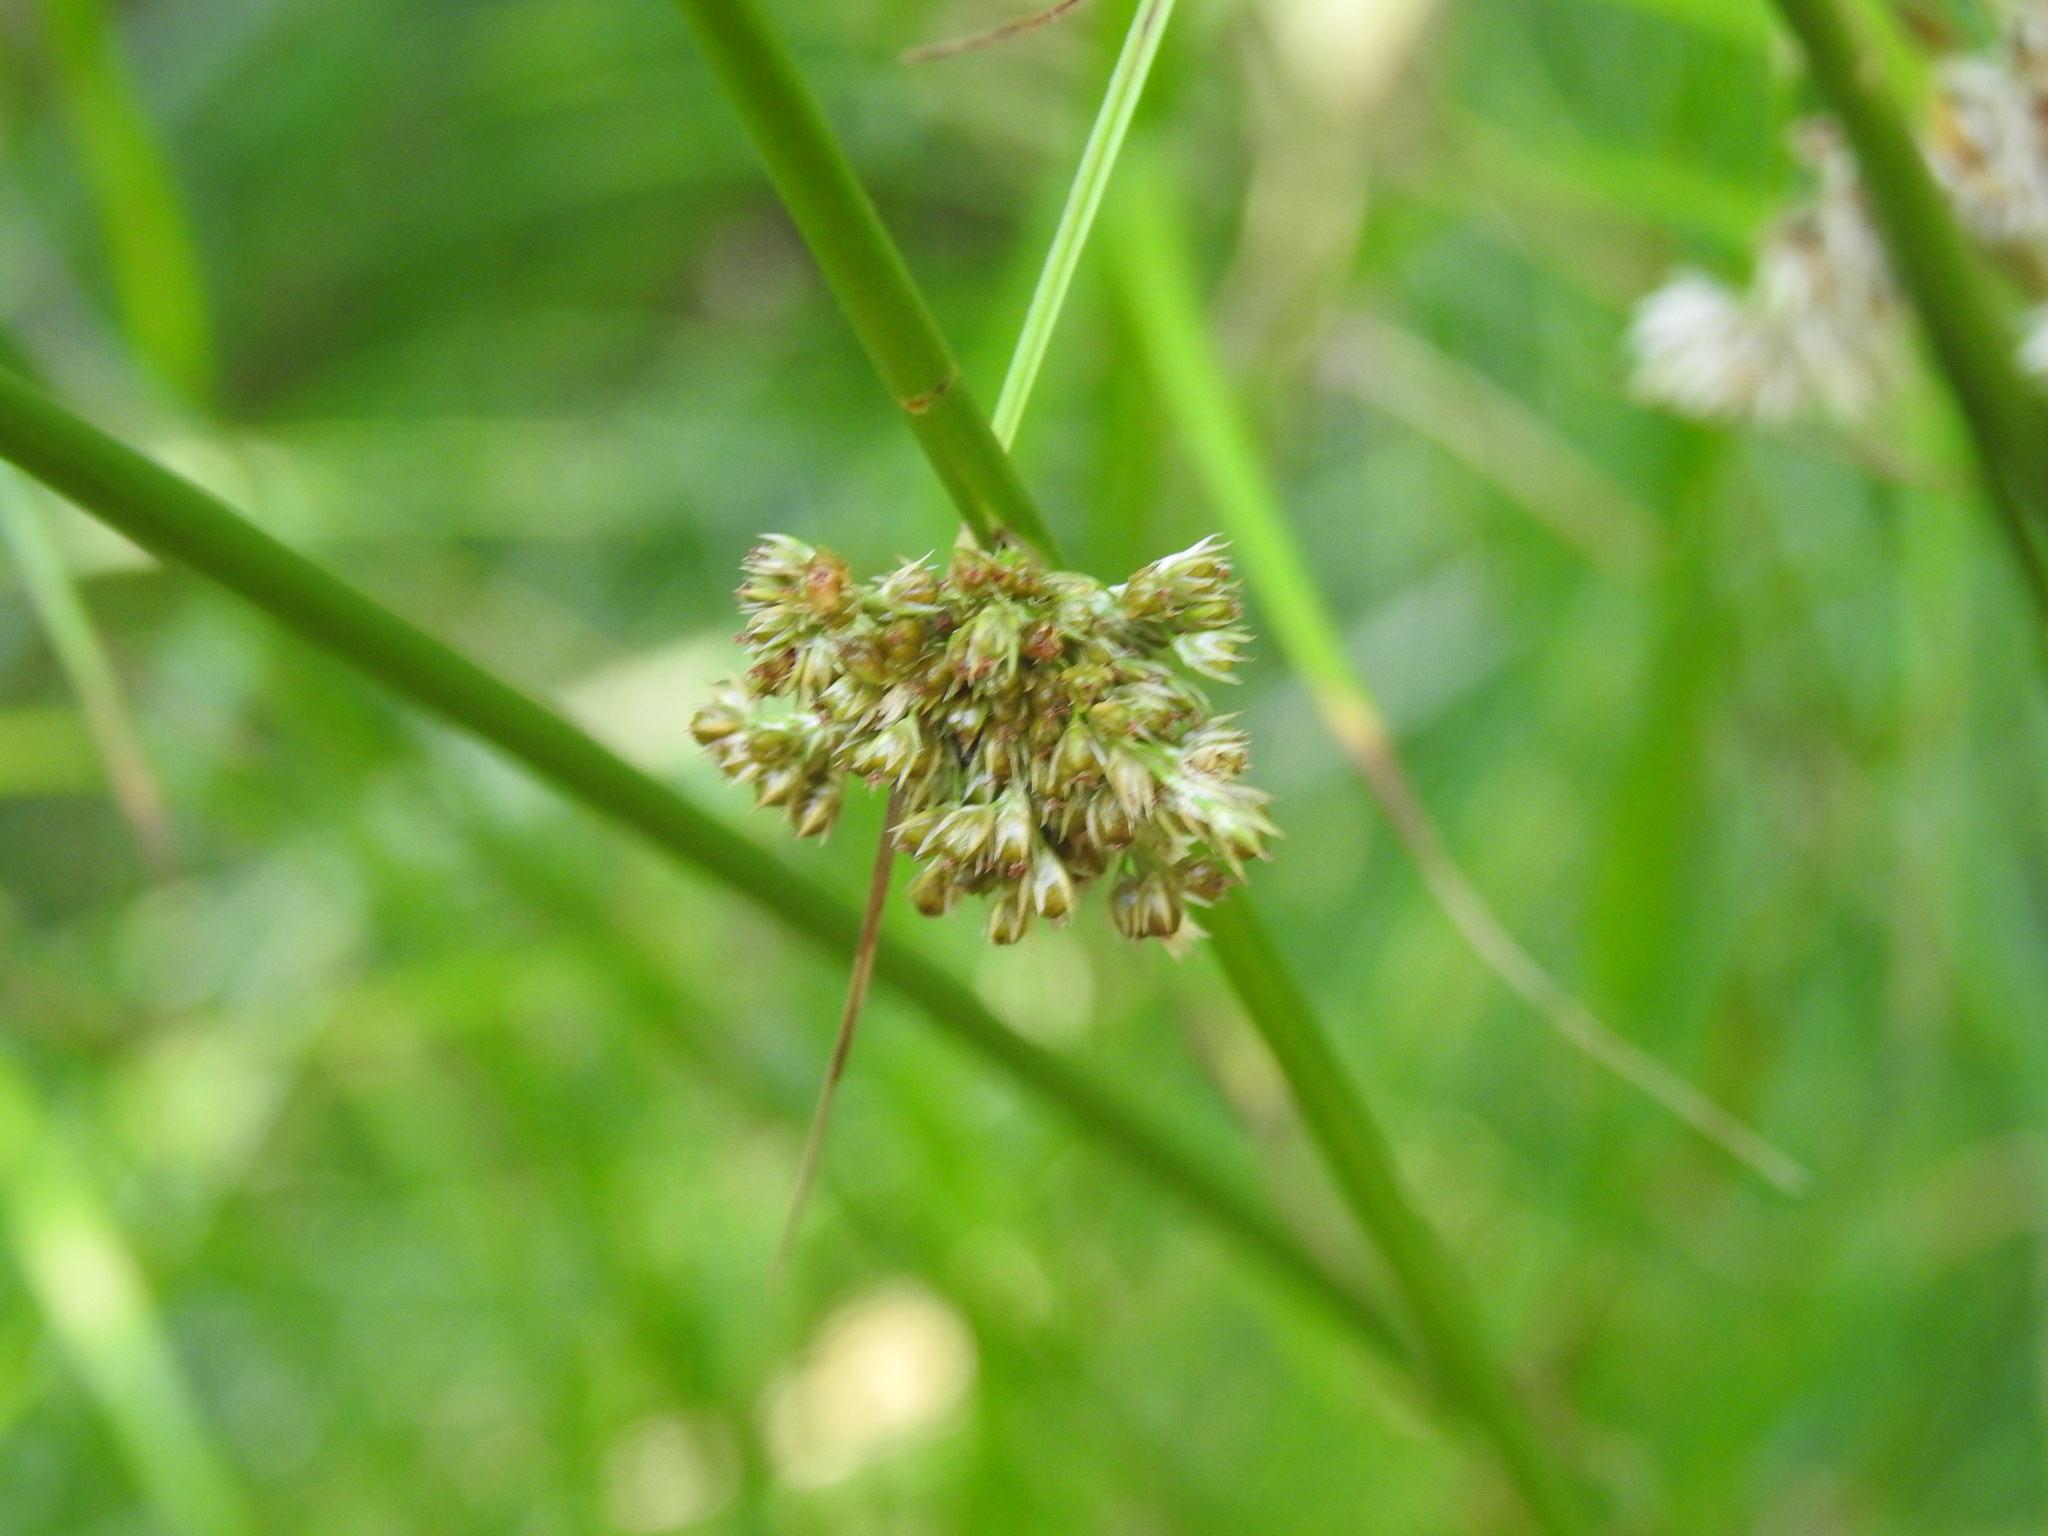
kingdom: Plantae
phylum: Tracheophyta
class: Liliopsida
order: Poales
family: Juncaceae
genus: Juncus
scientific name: Juncus effusus
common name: Soft rush
